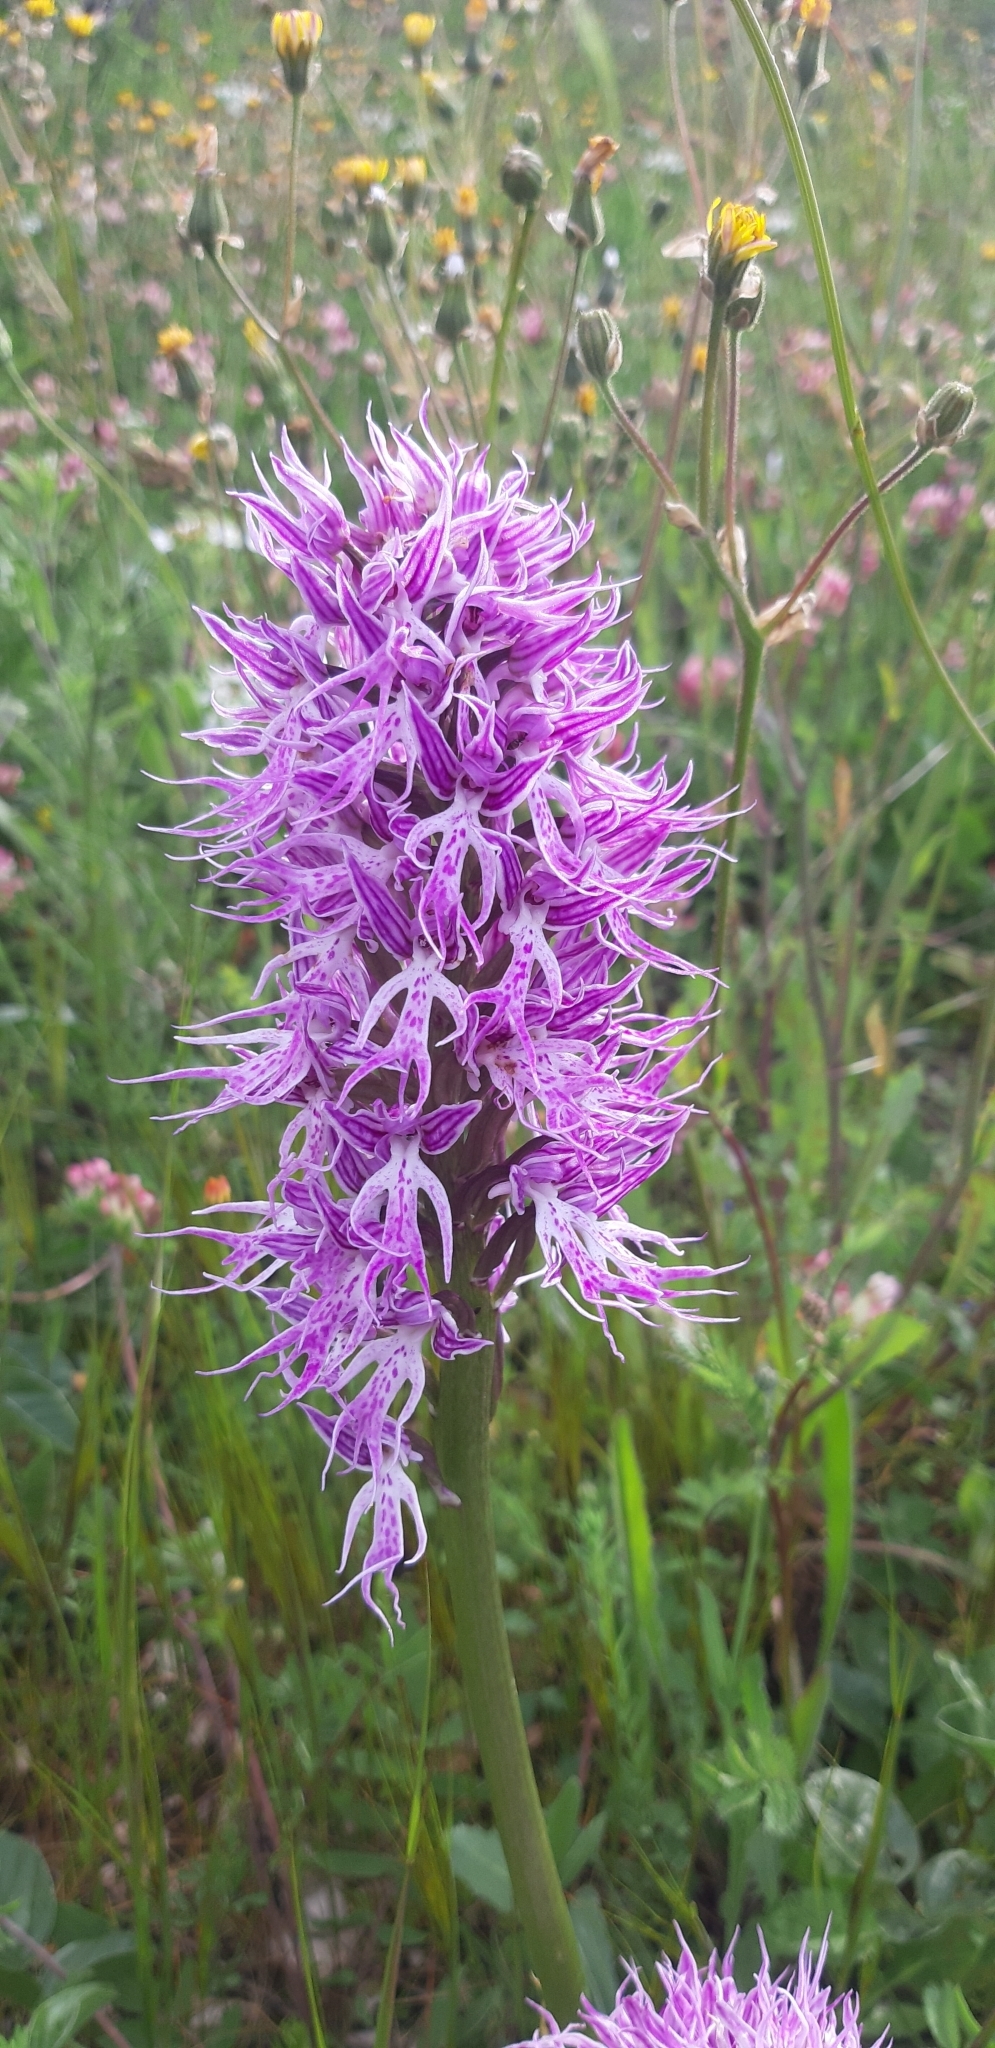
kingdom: Plantae
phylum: Tracheophyta
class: Liliopsida
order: Asparagales
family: Orchidaceae
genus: Orchis
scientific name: Orchis italica
